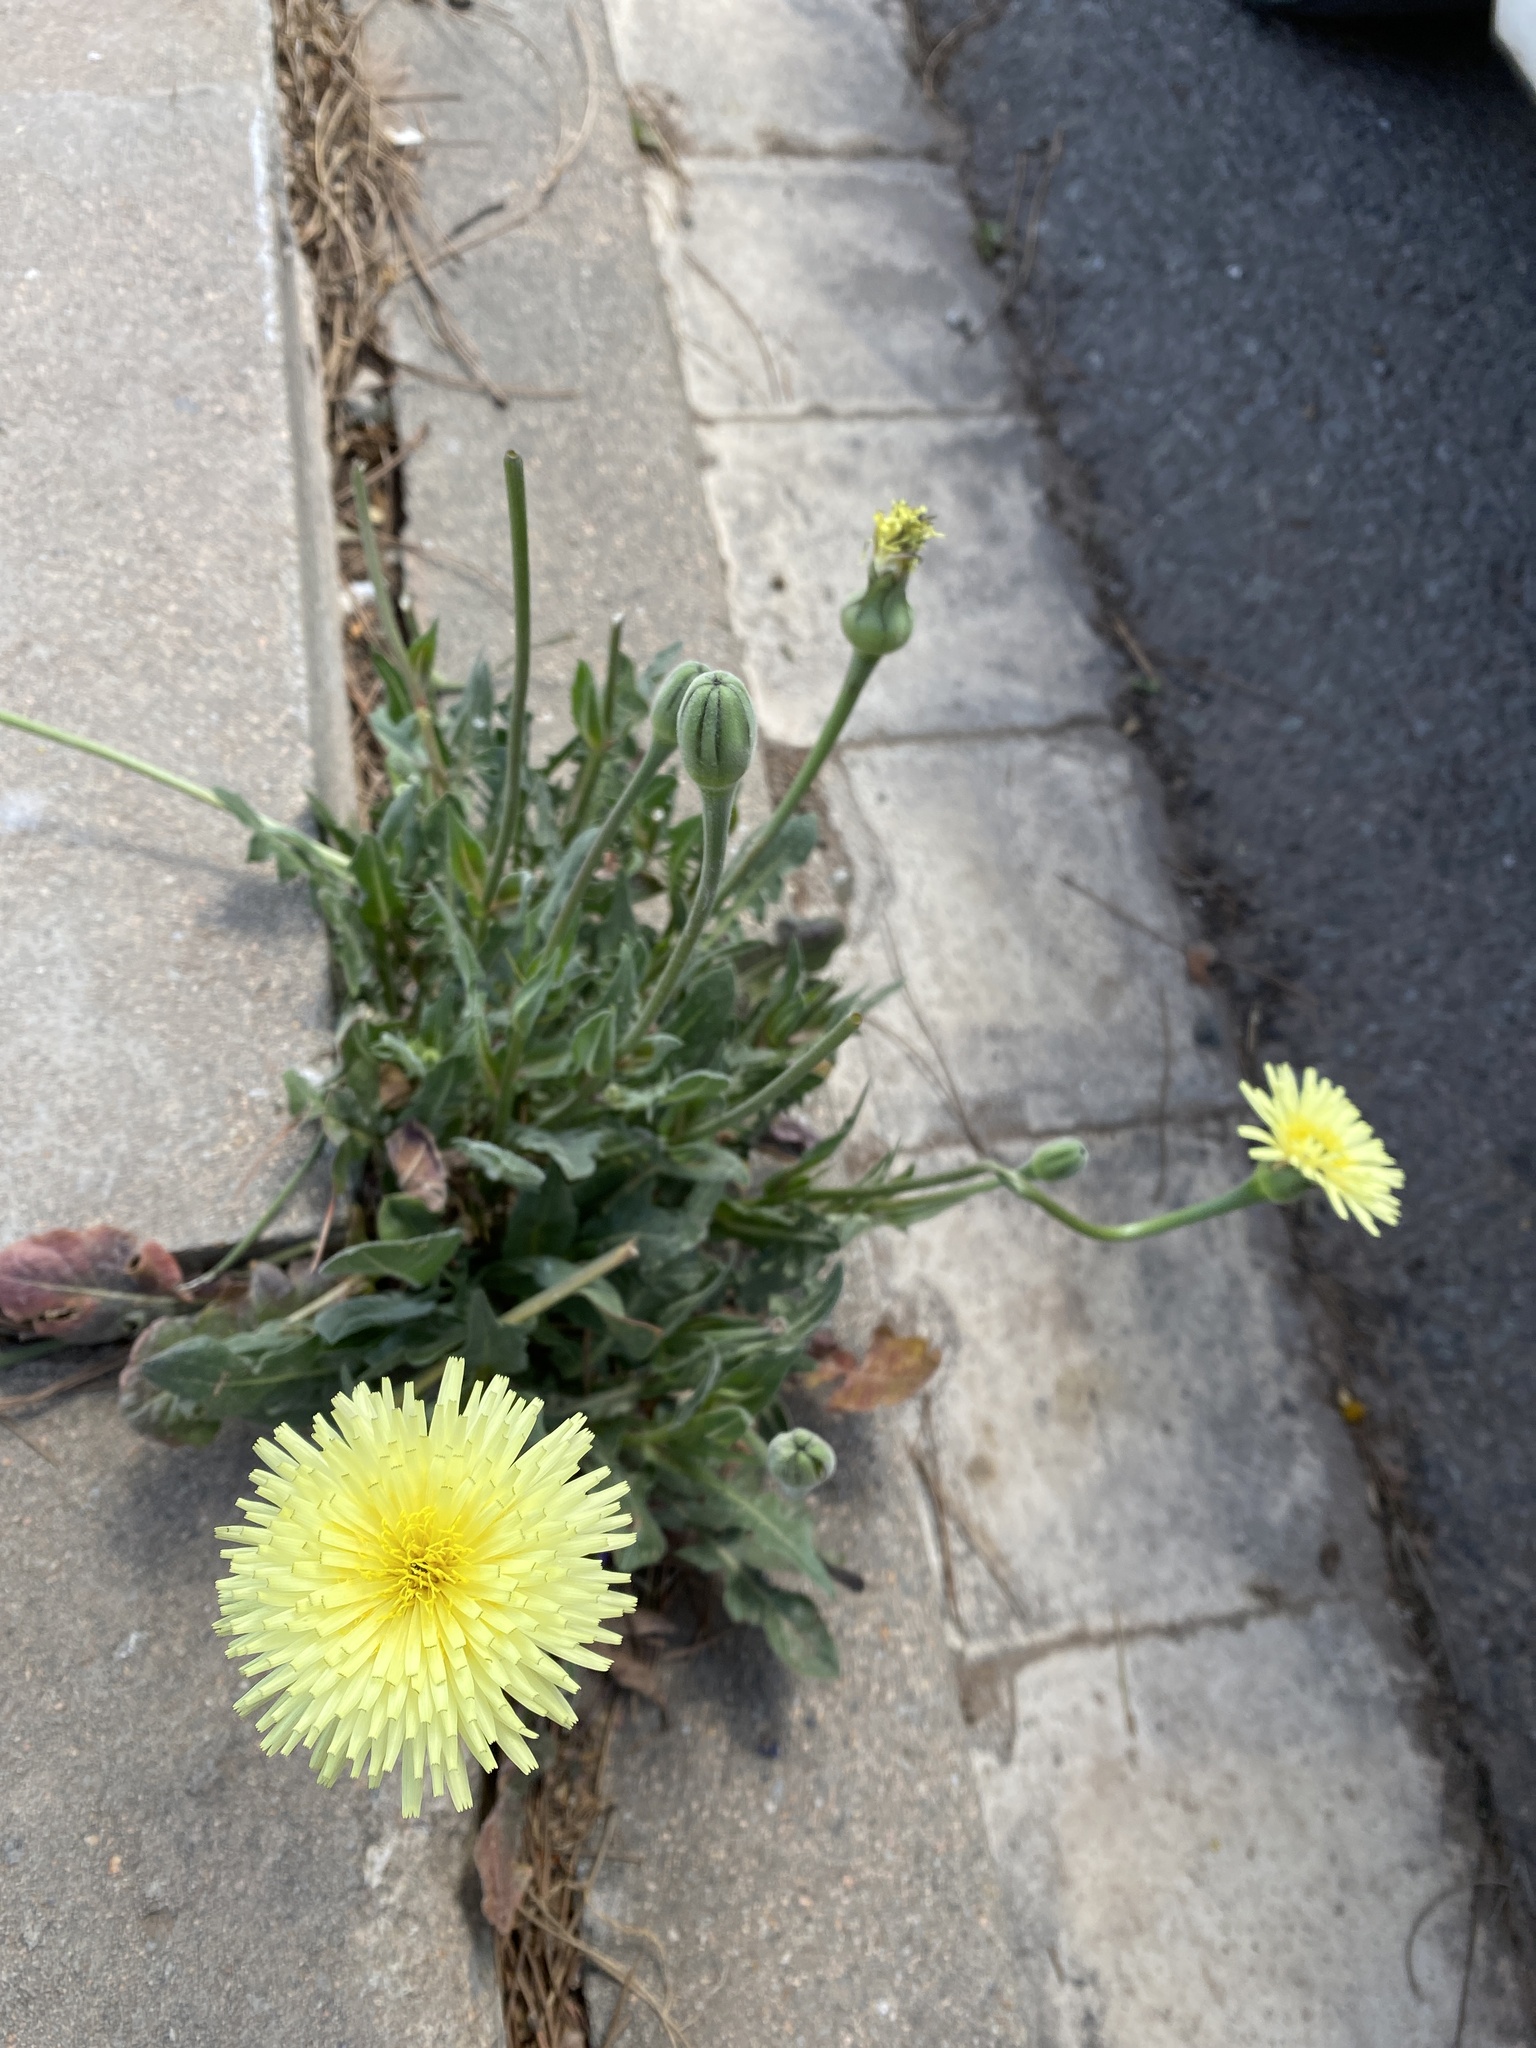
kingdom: Plantae
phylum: Tracheophyta
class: Magnoliopsida
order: Asterales
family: Asteraceae
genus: Urospermum
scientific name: Urospermum dalechampii
